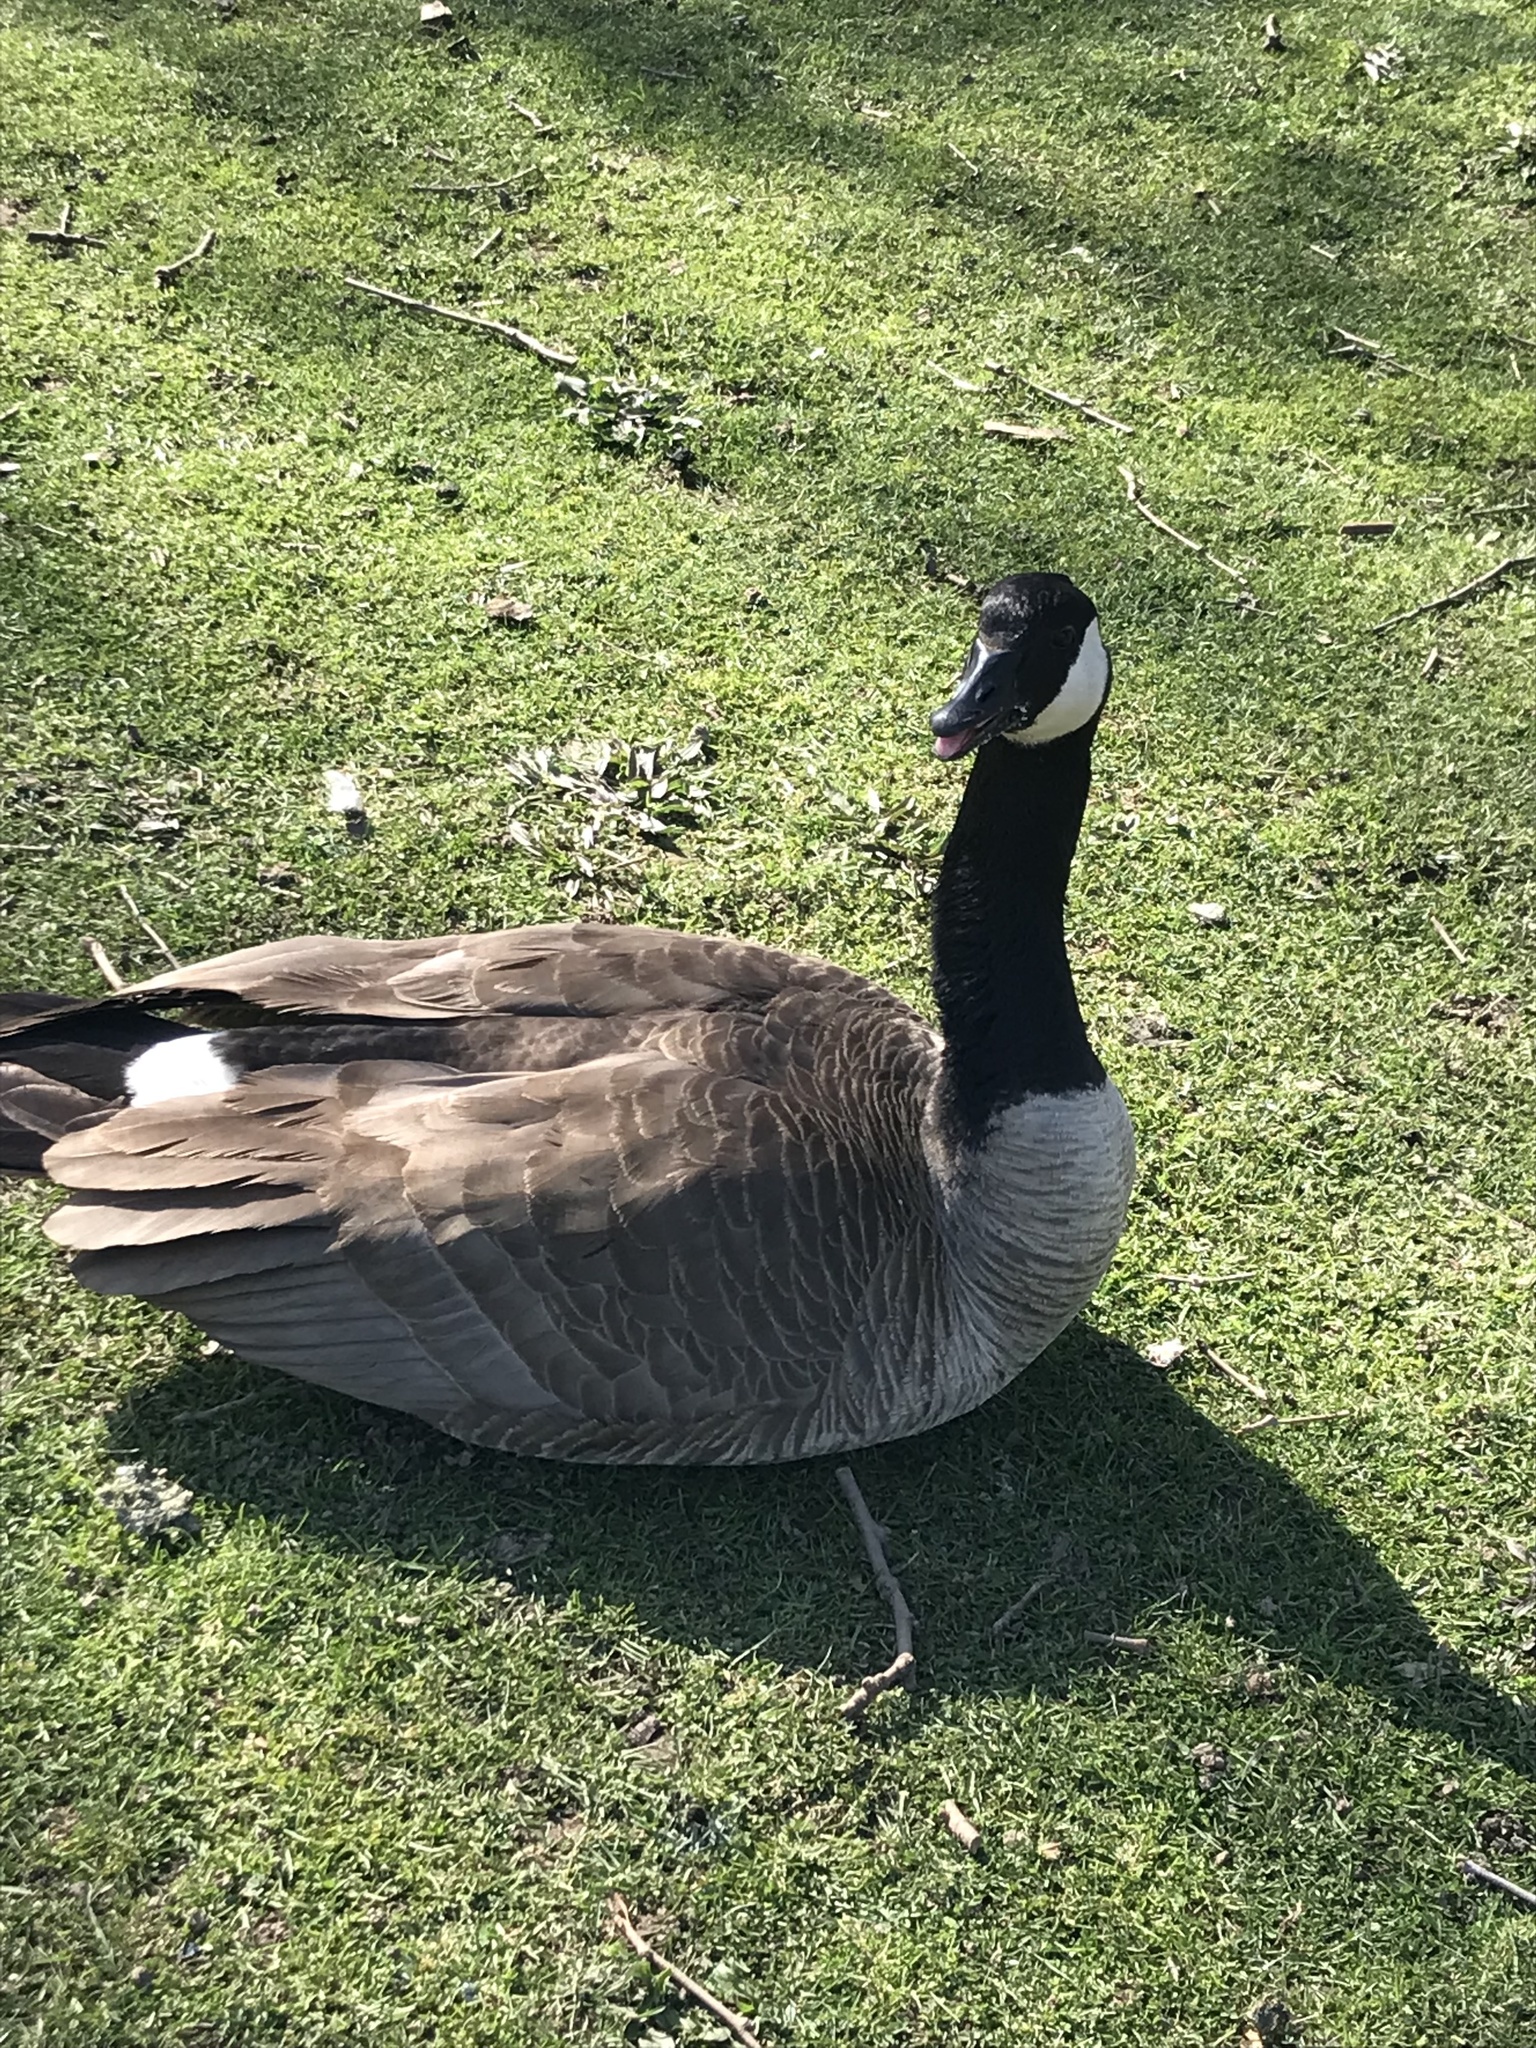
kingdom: Animalia
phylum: Chordata
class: Aves
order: Anseriformes
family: Anatidae
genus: Branta
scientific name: Branta canadensis
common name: Canada goose
